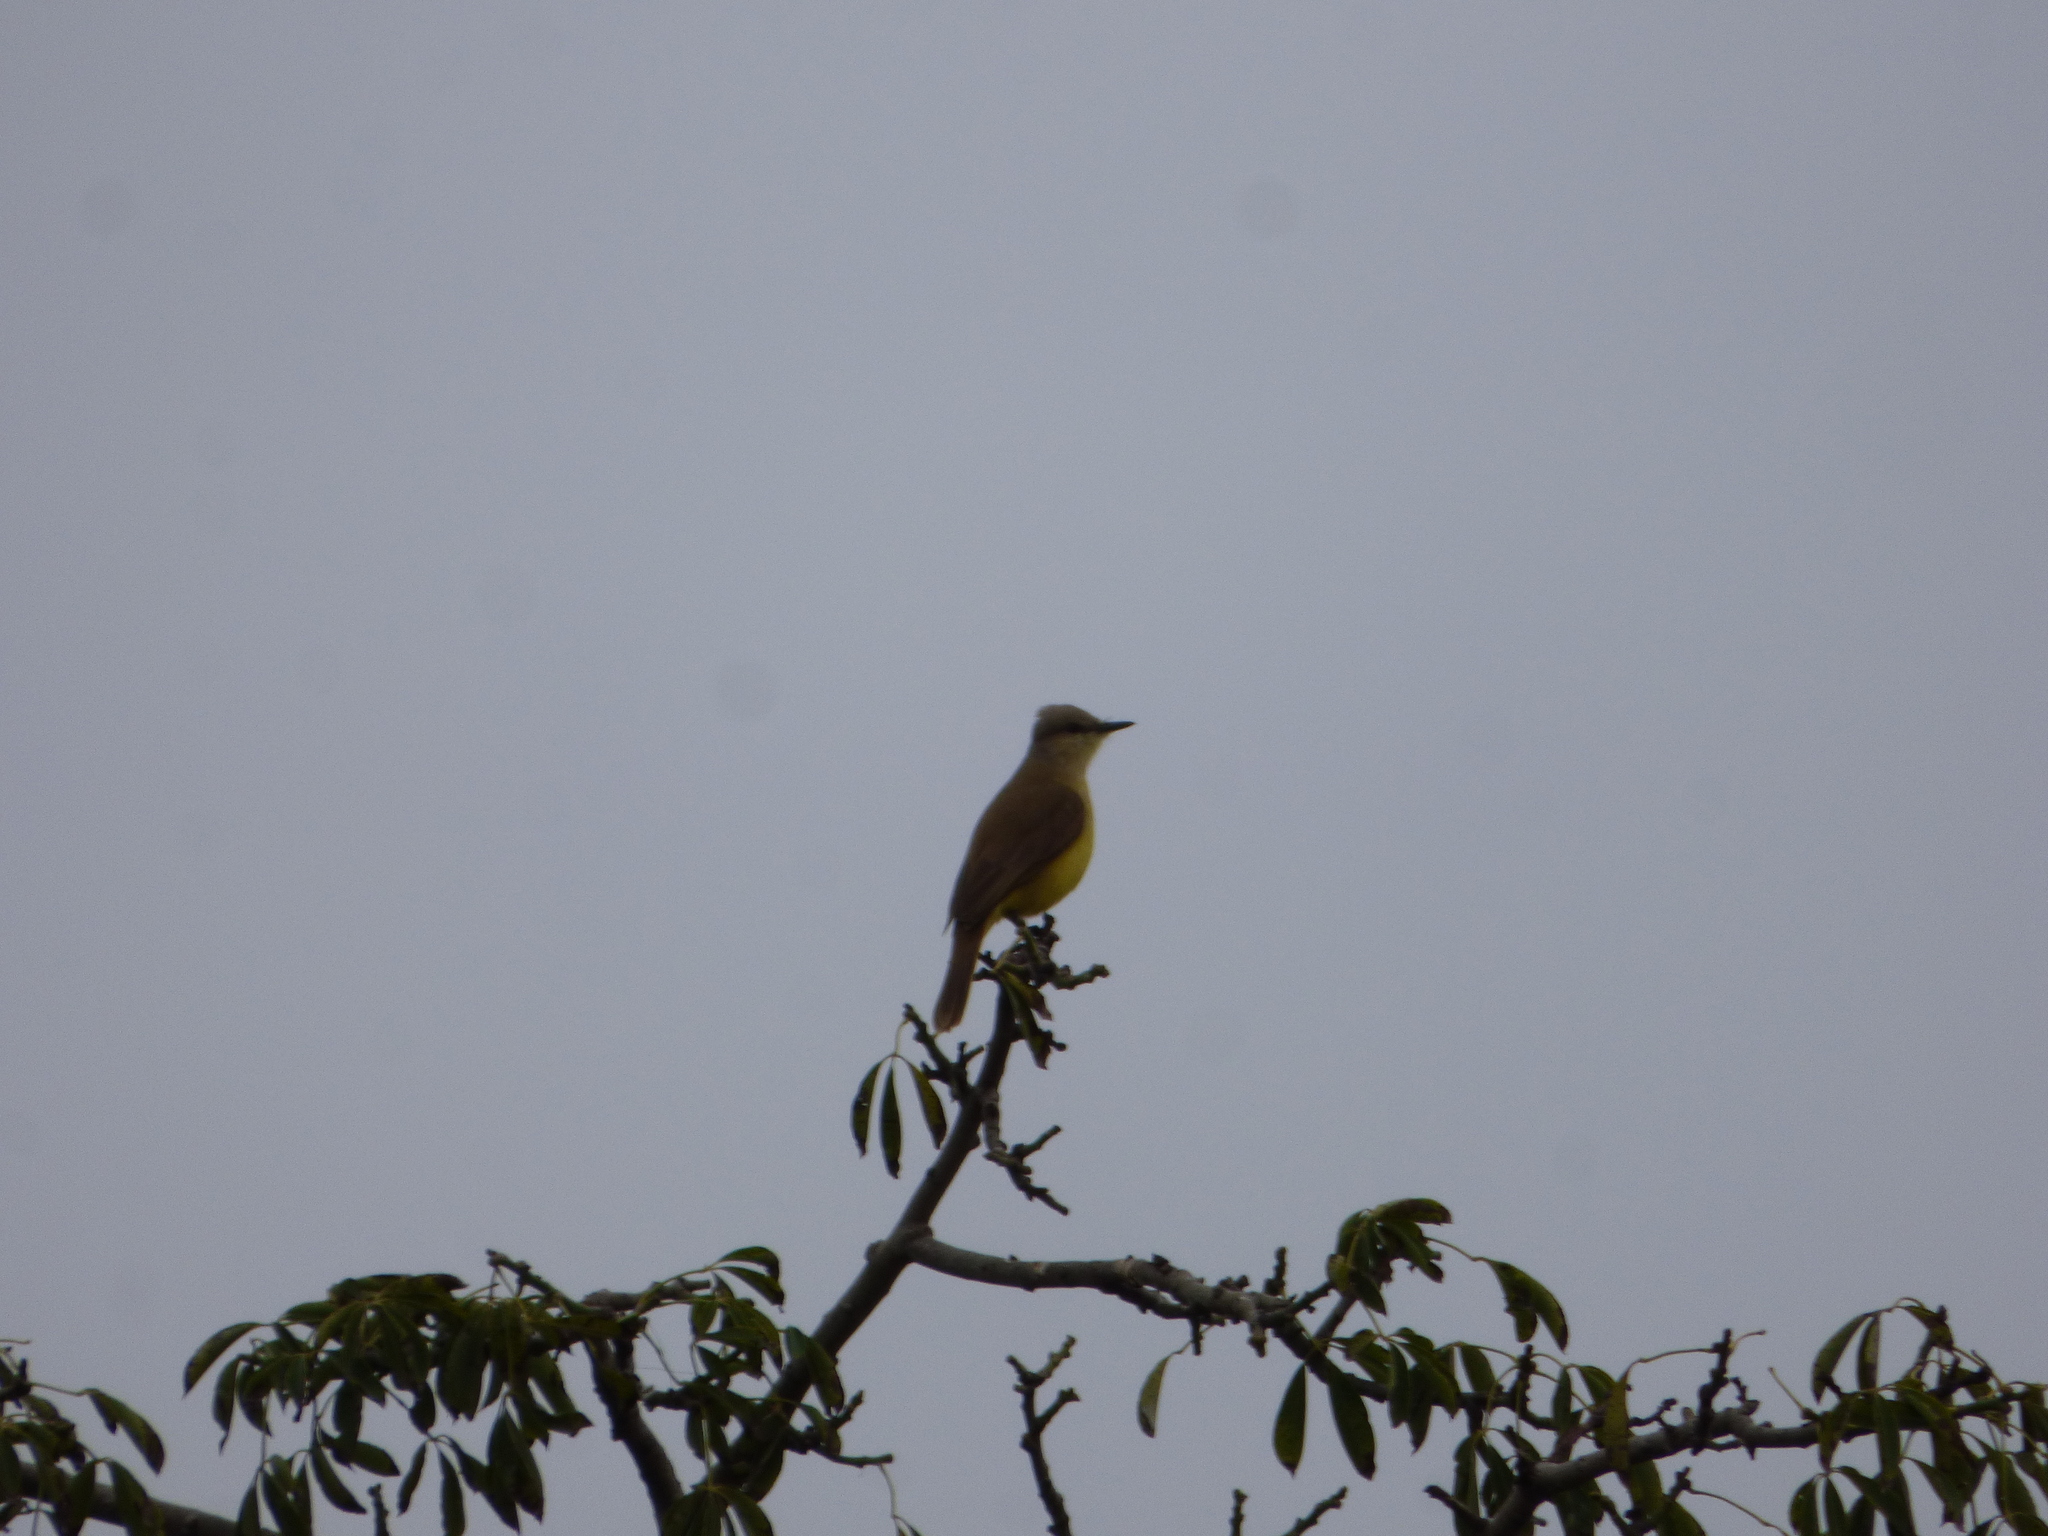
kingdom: Animalia
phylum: Chordata
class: Aves
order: Passeriformes
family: Tyrannidae
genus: Machetornis
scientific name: Machetornis rixosa
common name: Cattle tyrant
